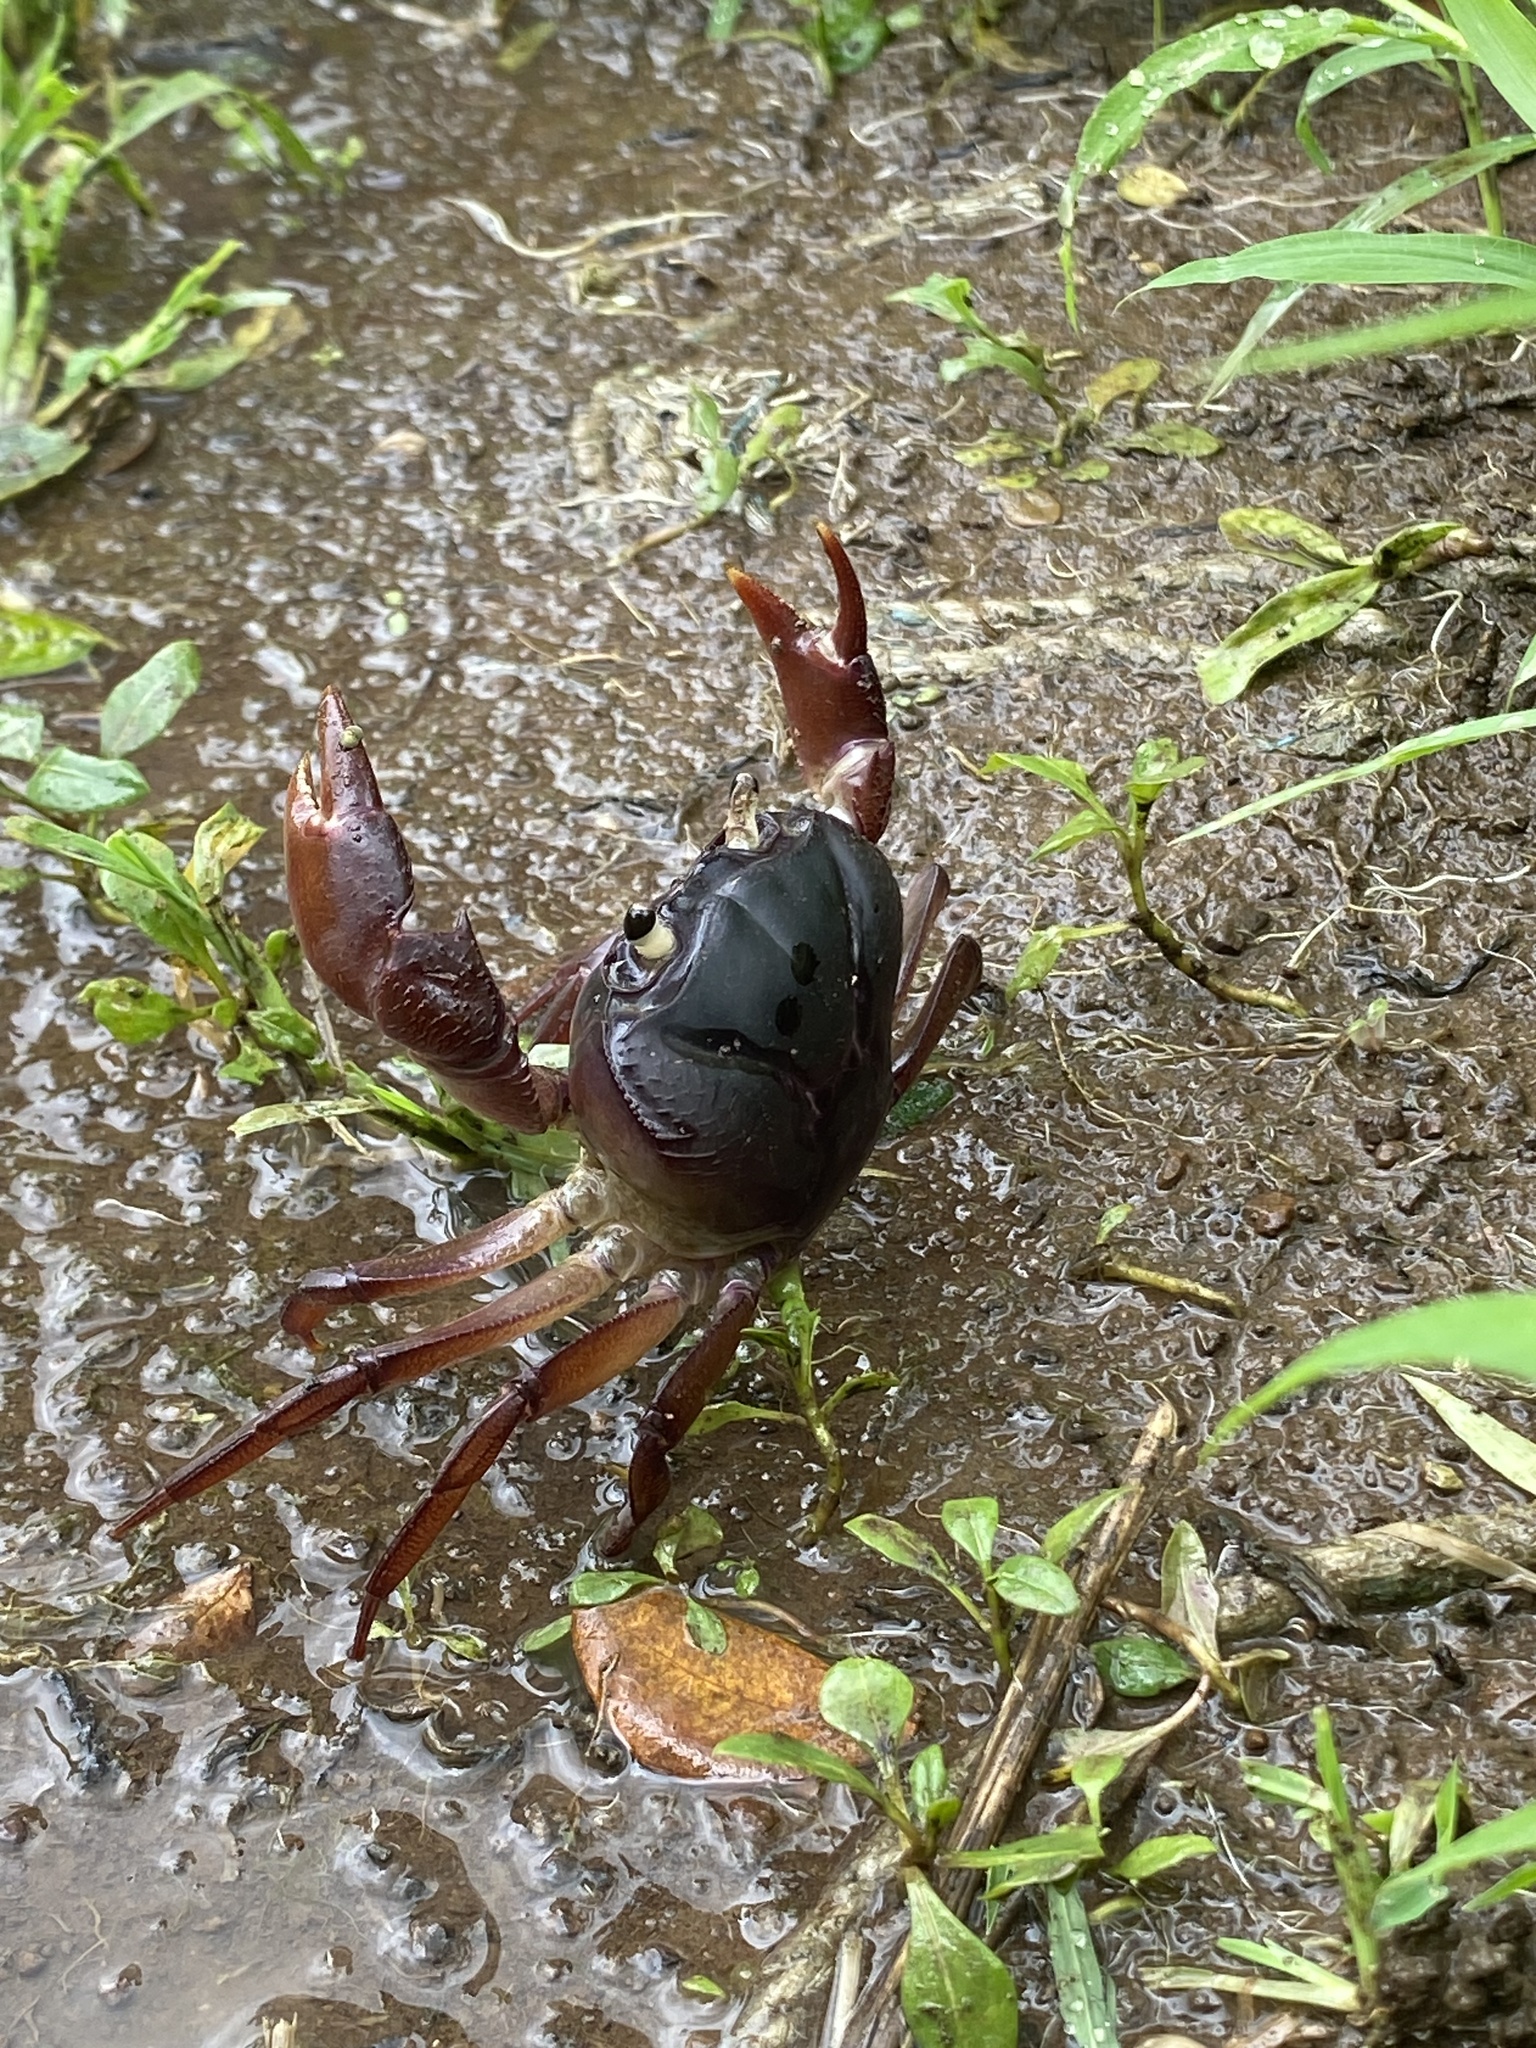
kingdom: Animalia
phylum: Arthropoda
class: Malacostraca
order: Decapoda
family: Gecarcinucidae
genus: Barusa
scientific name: Barusa guerini
